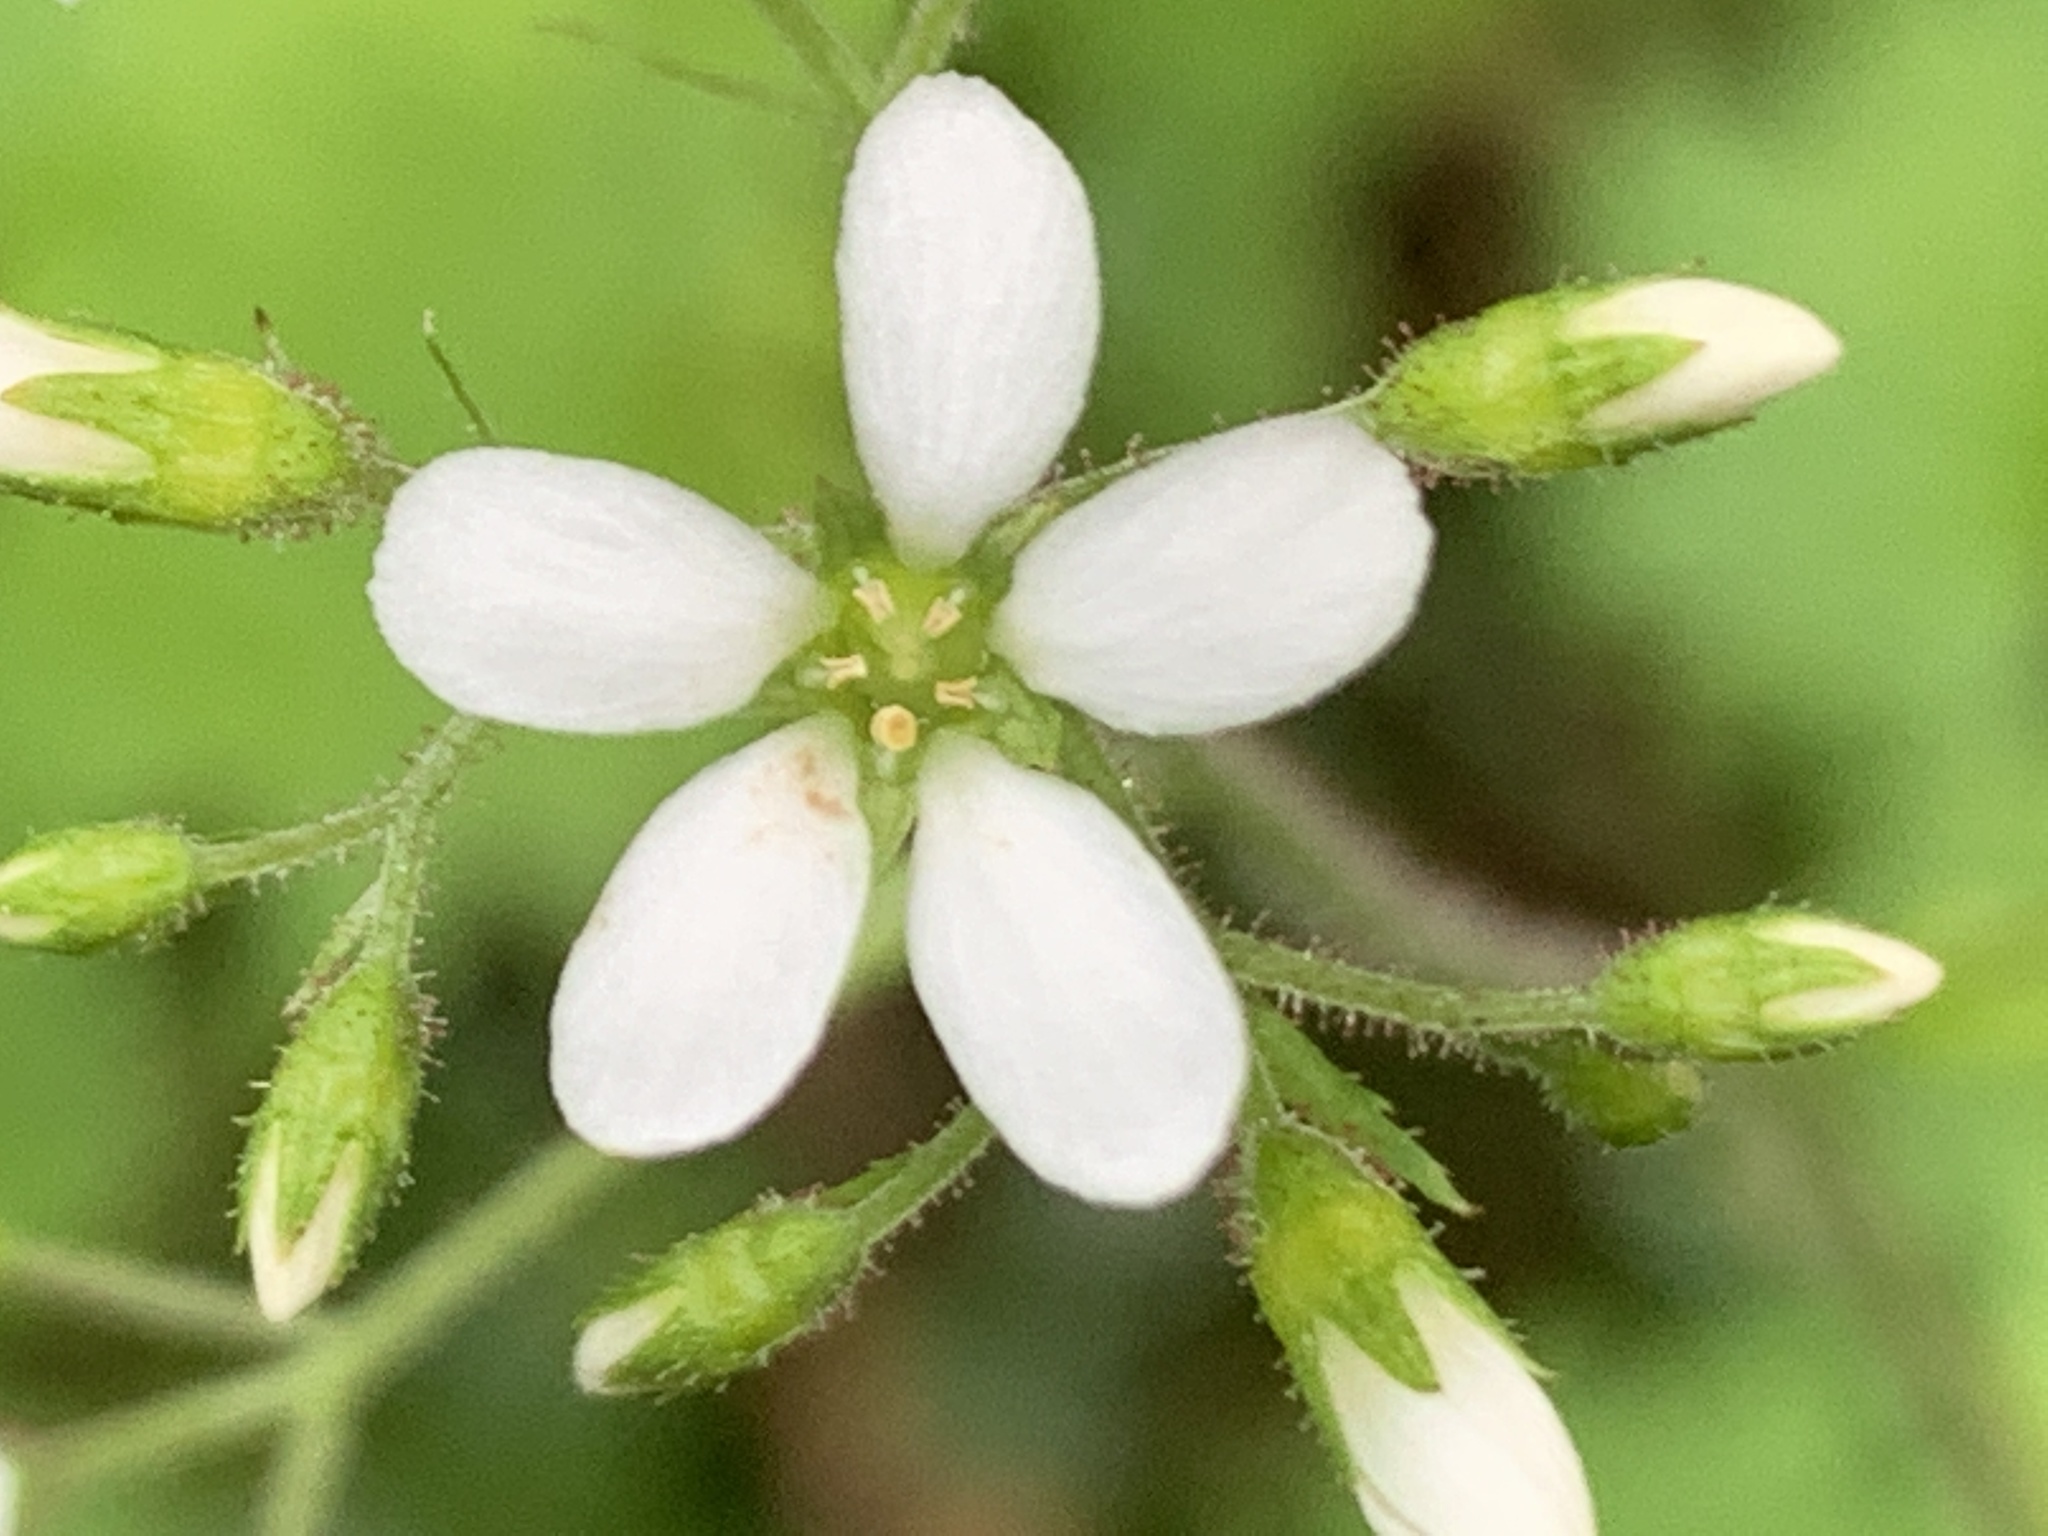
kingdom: Plantae
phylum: Tracheophyta
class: Magnoliopsida
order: Saxifragales
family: Saxifragaceae
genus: Boykinia
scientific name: Boykinia occidentalis
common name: Coast boykinia
